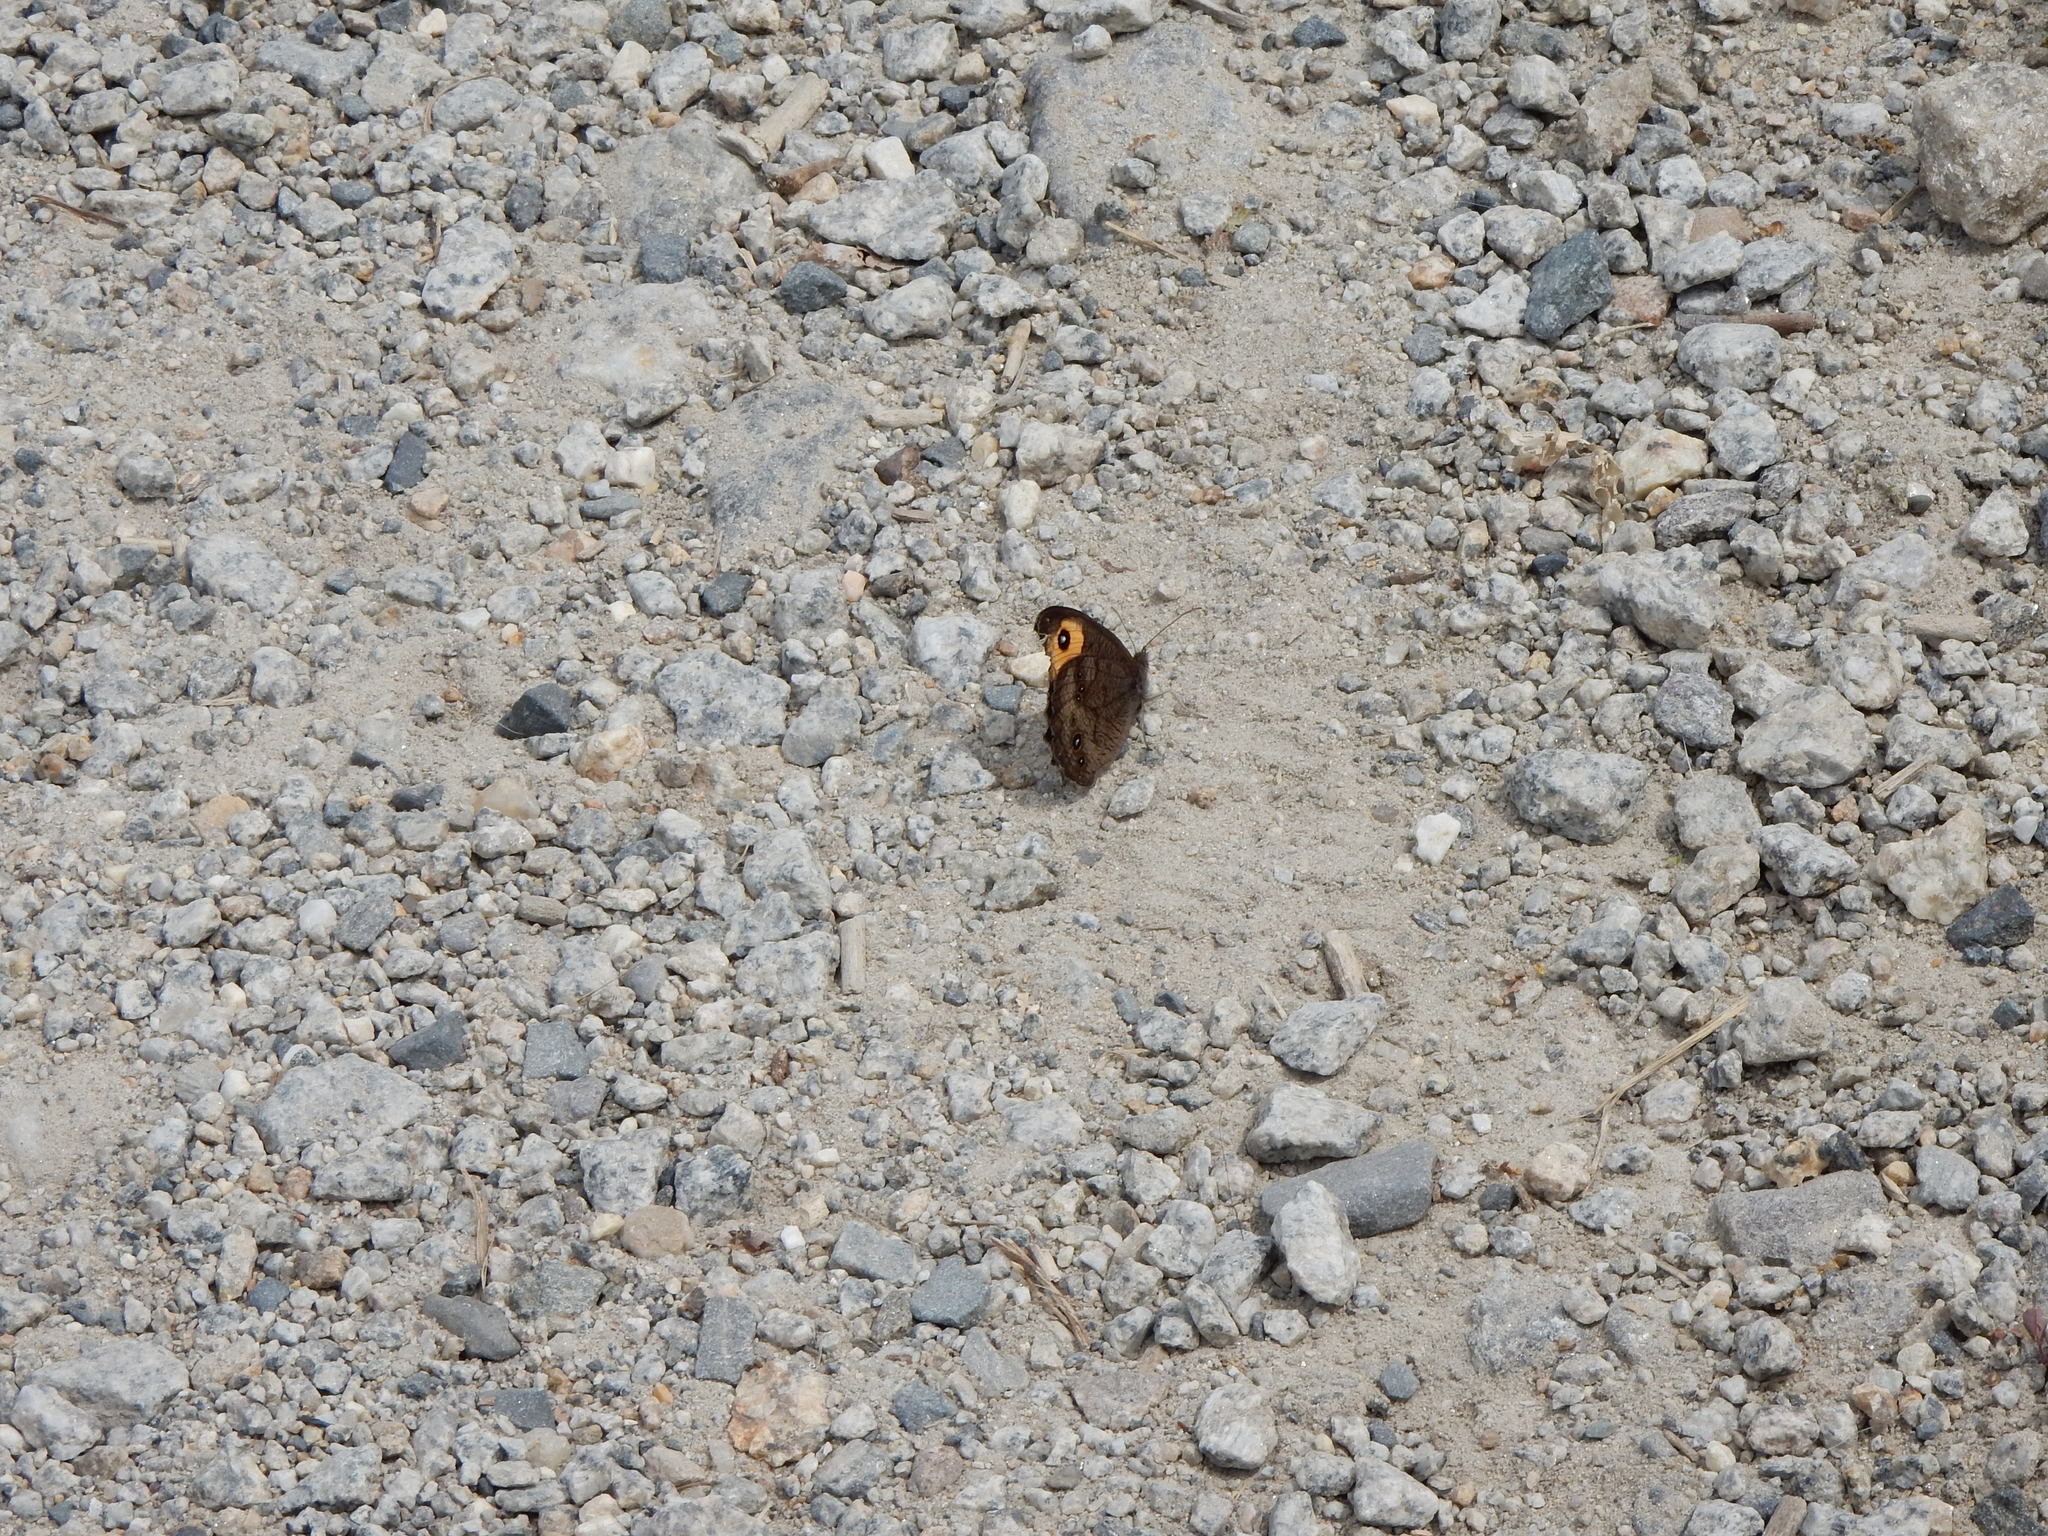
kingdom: Animalia
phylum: Arthropoda
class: Insecta
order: Lepidoptera
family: Nymphalidae
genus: Cercyonis
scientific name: Cercyonis pegala
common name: Common wood-nymph
